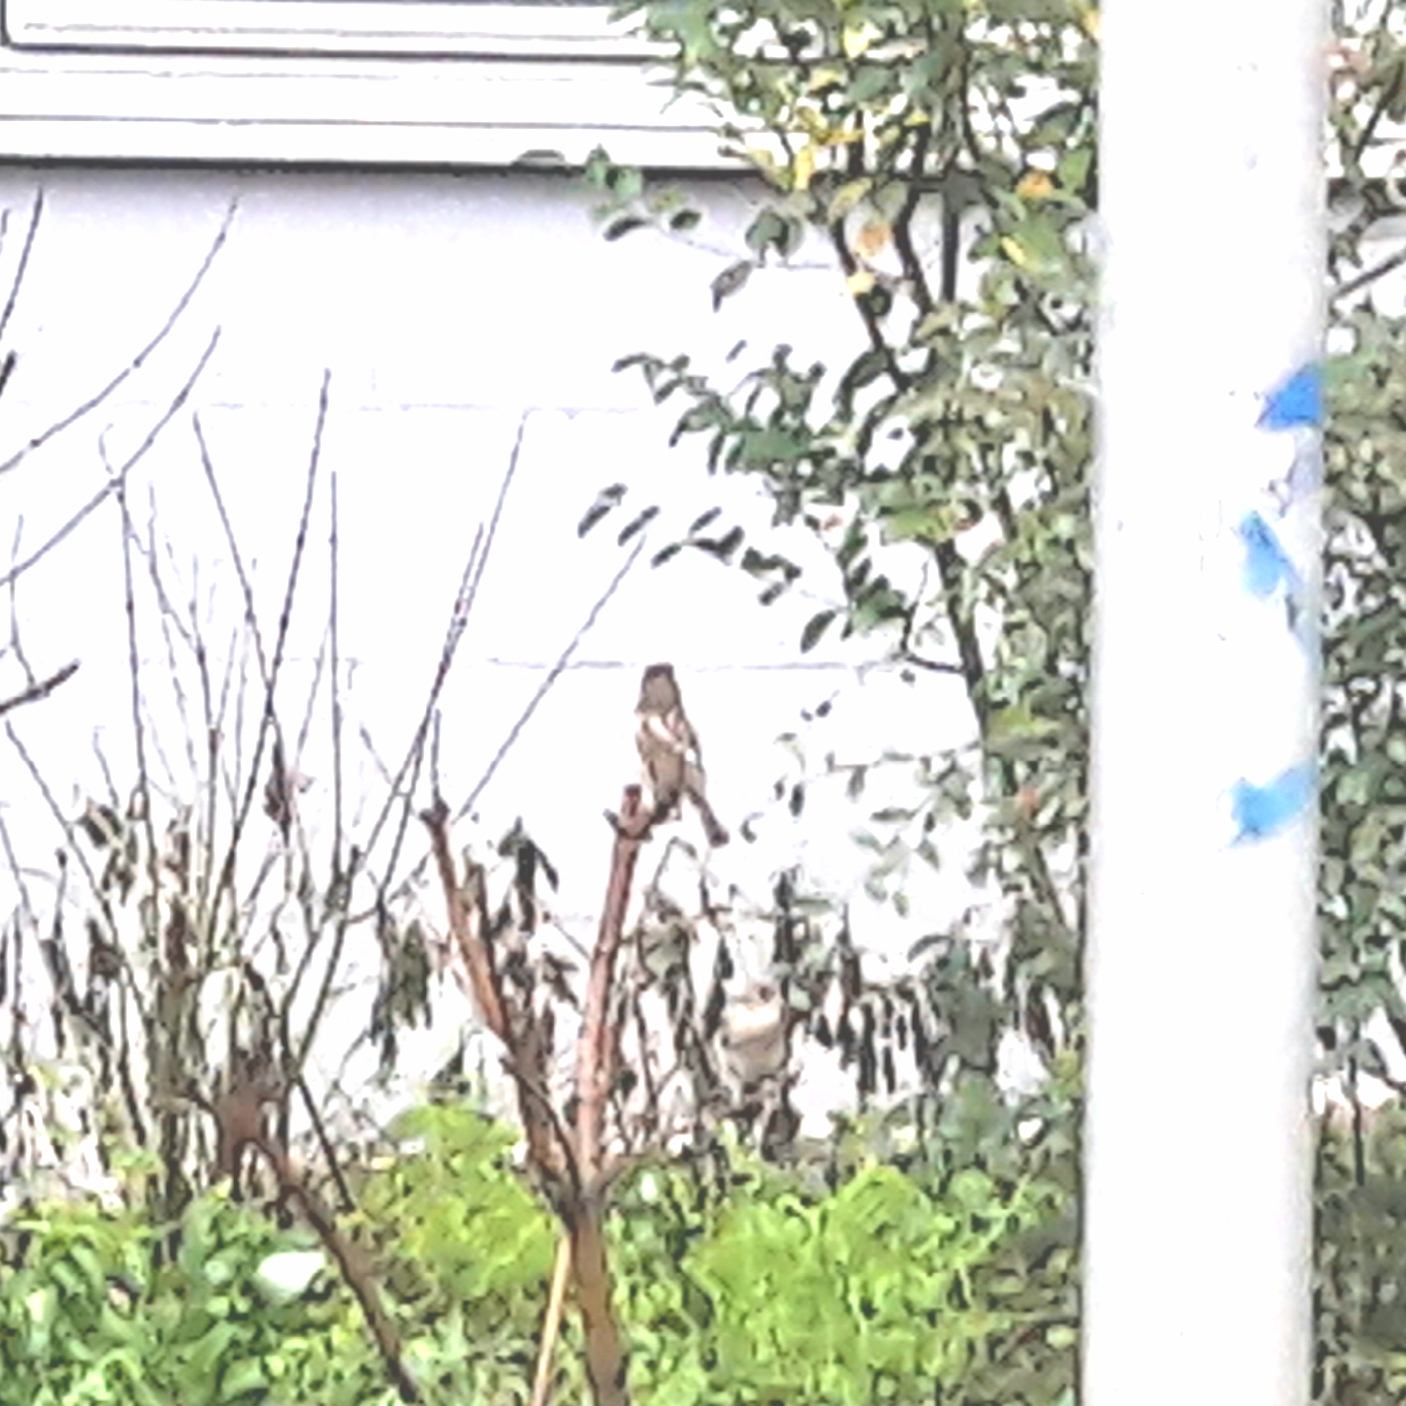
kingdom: Animalia
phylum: Chordata
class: Aves
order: Passeriformes
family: Passeridae
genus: Passer
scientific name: Passer domesticus
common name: House sparrow
